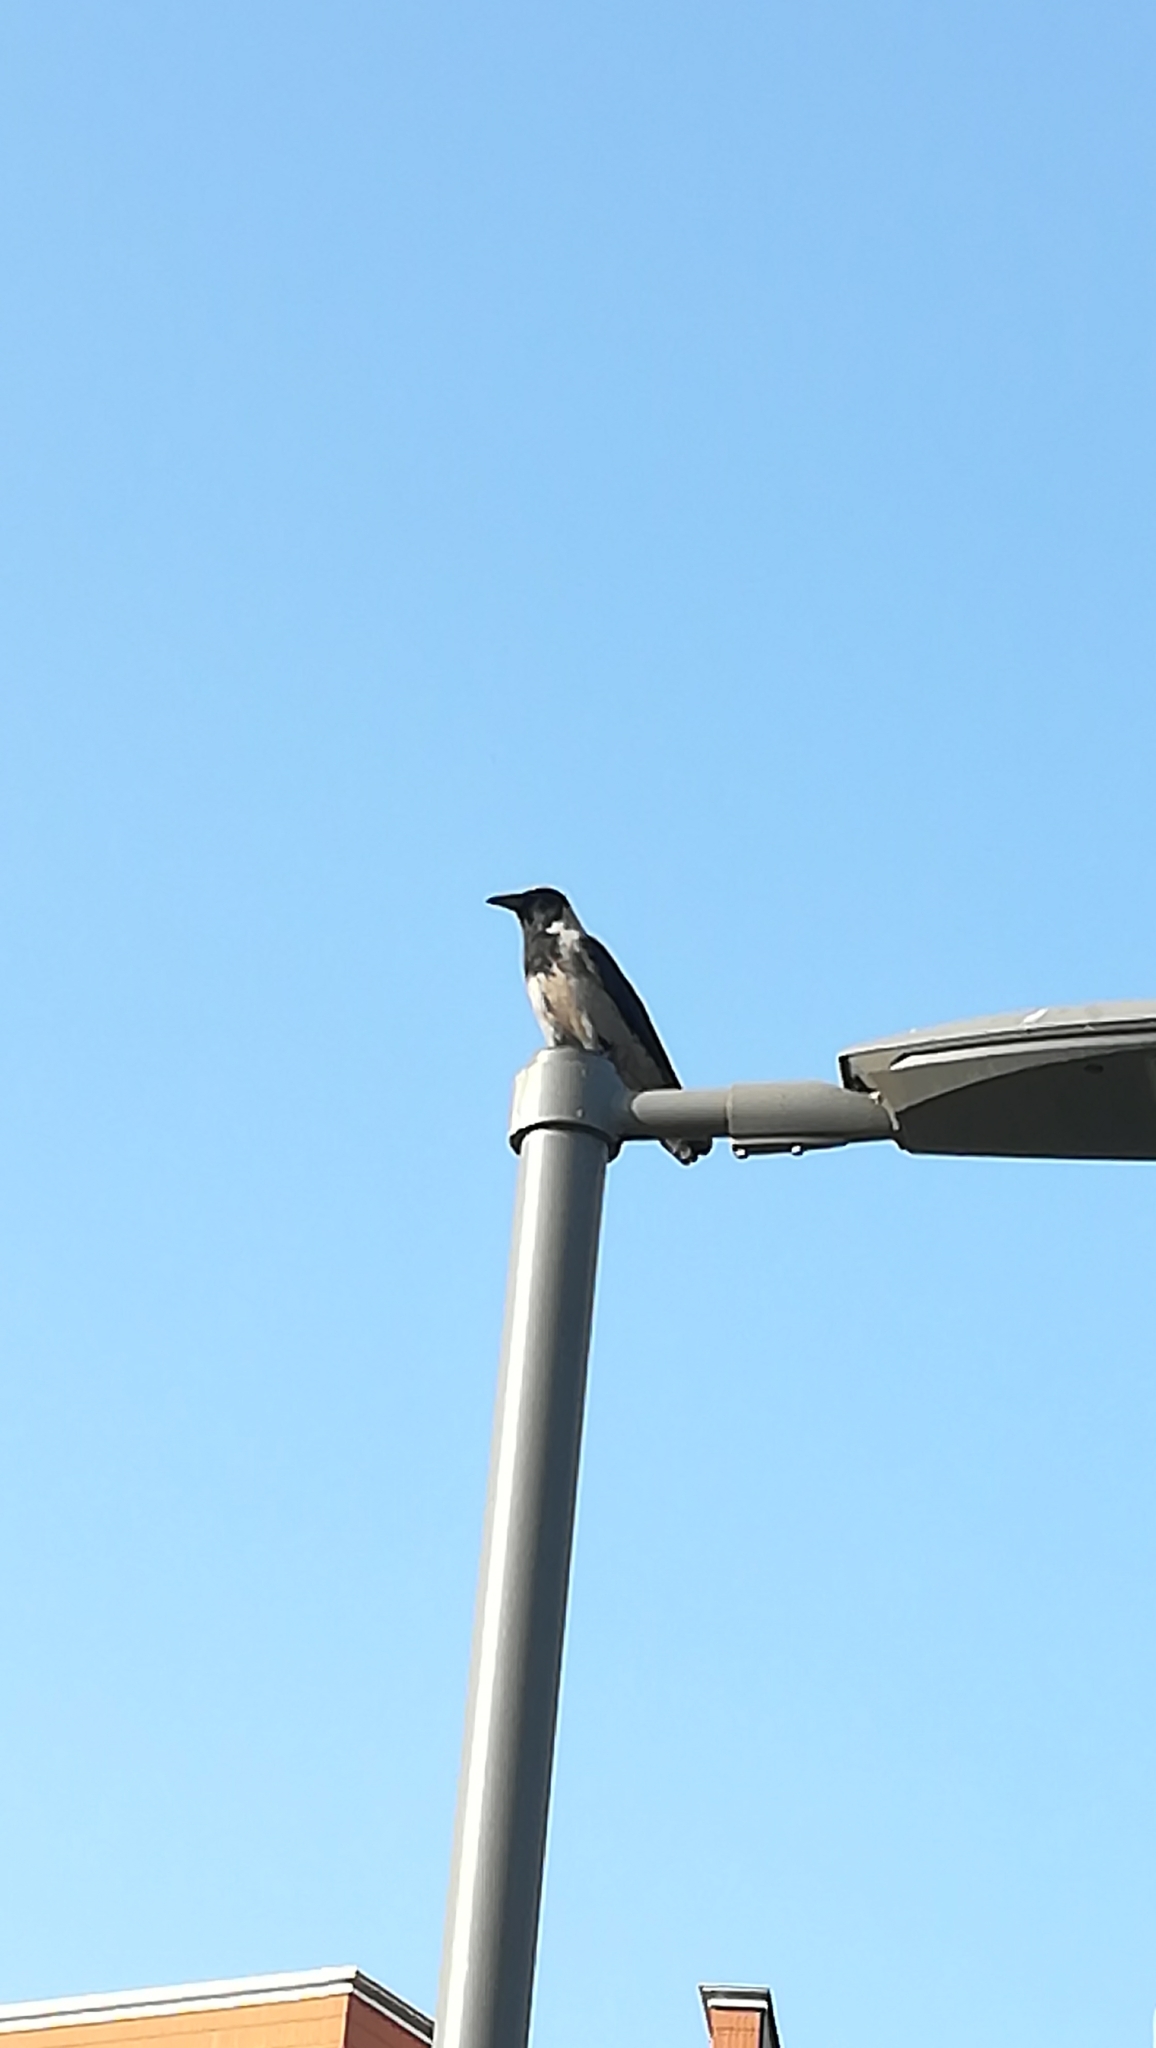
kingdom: Animalia
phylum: Chordata
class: Aves
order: Passeriformes
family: Corvidae
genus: Corvus
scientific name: Corvus cornix
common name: Hooded crow
